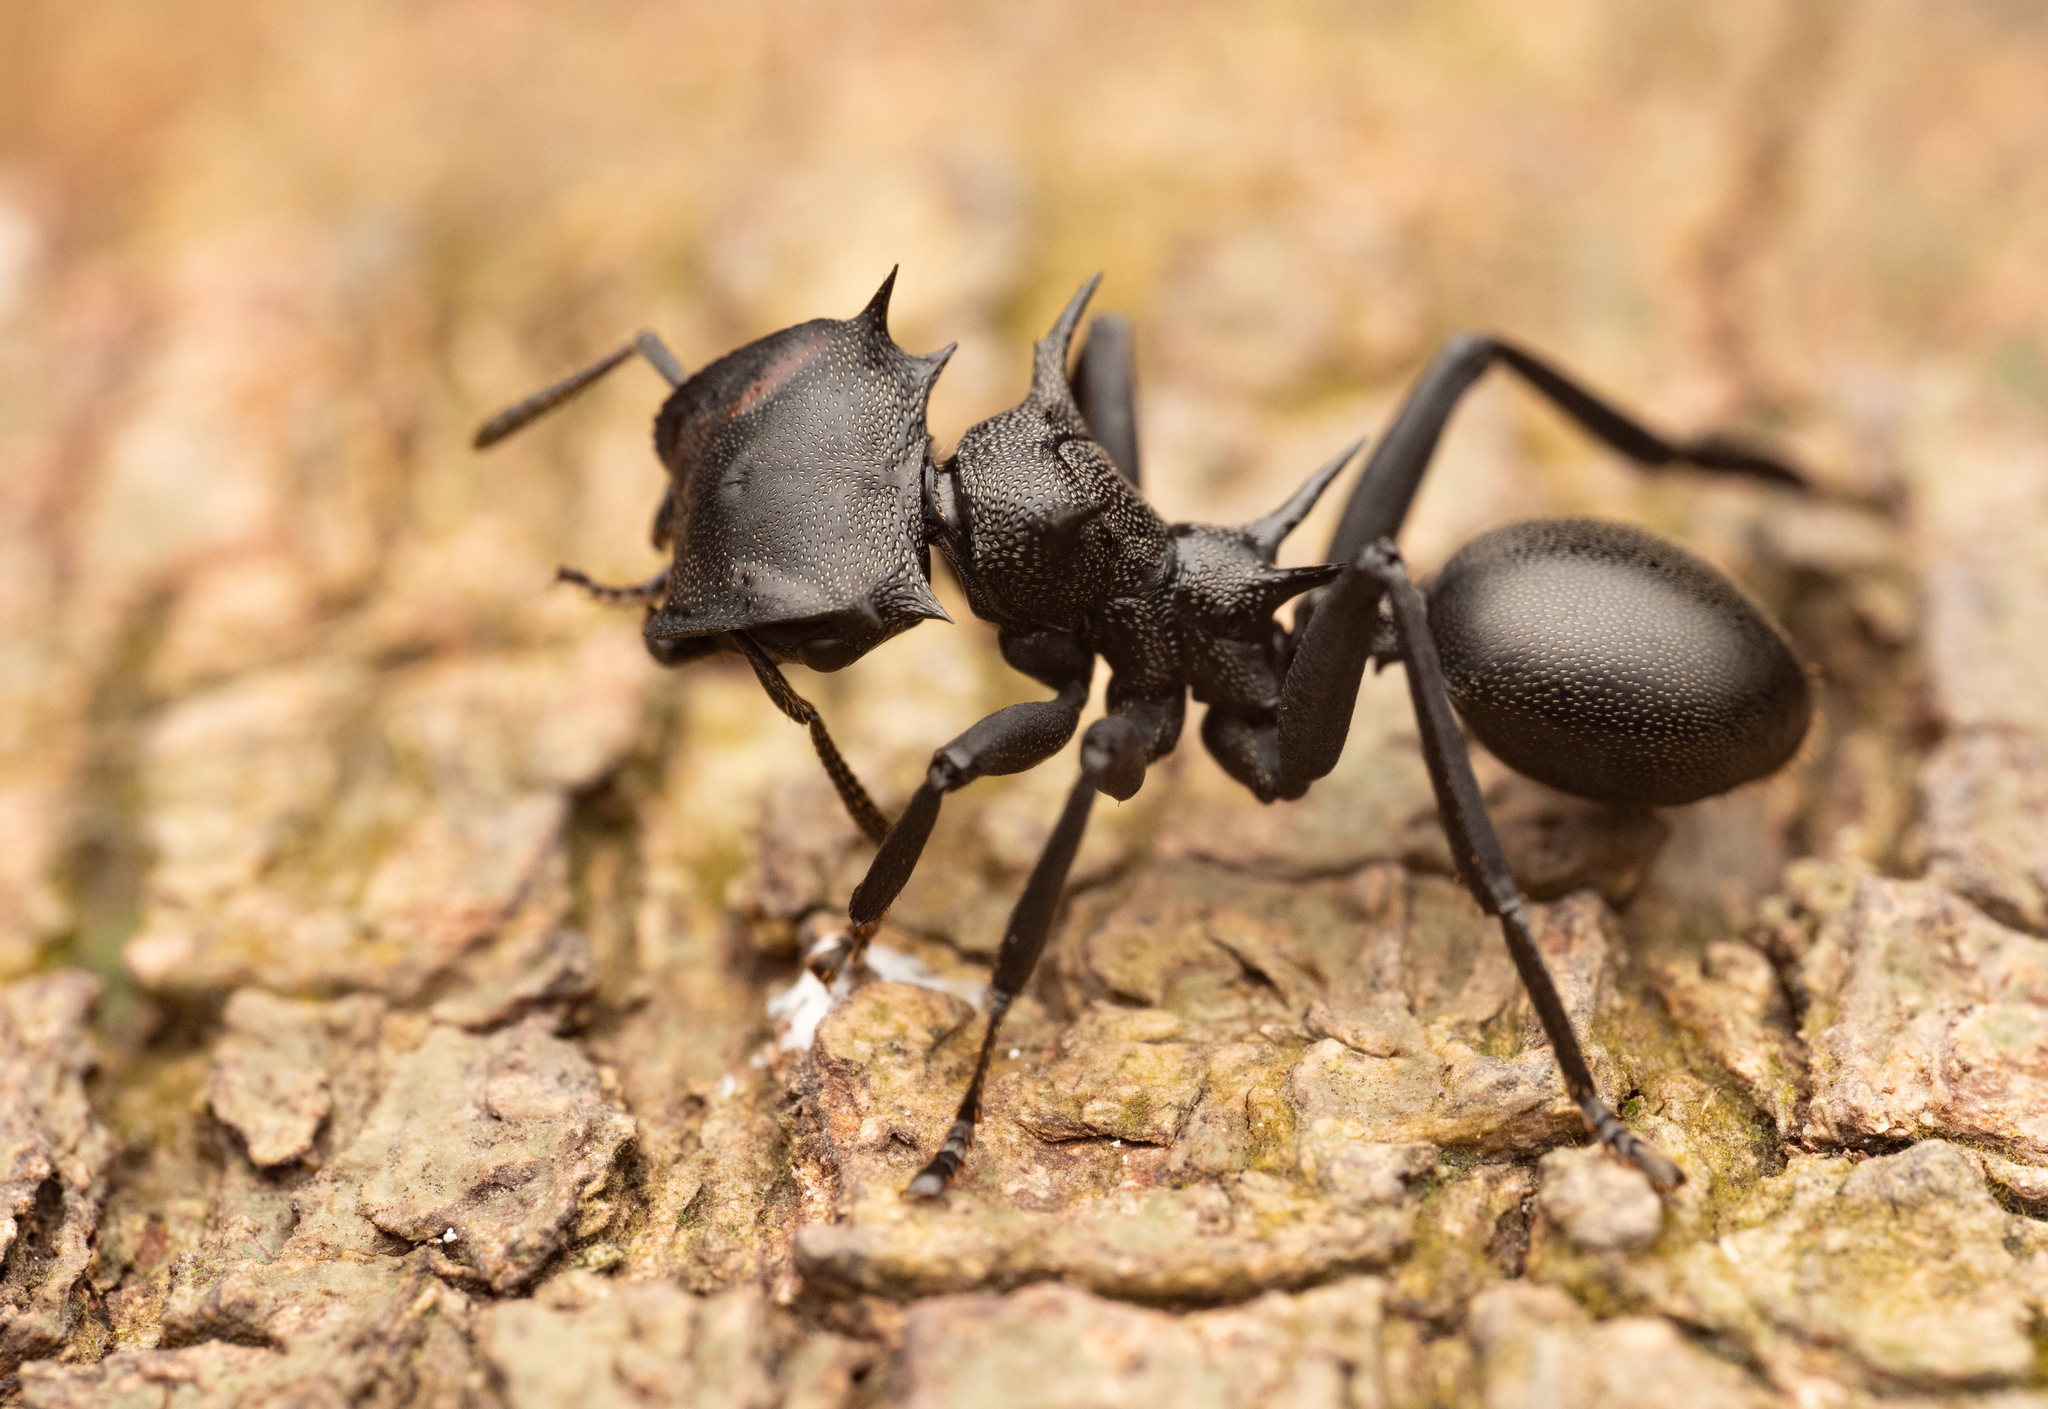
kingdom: Animalia
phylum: Arthropoda
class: Insecta
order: Hymenoptera
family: Formicidae
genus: Cephalotes
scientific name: Cephalotes atratus
